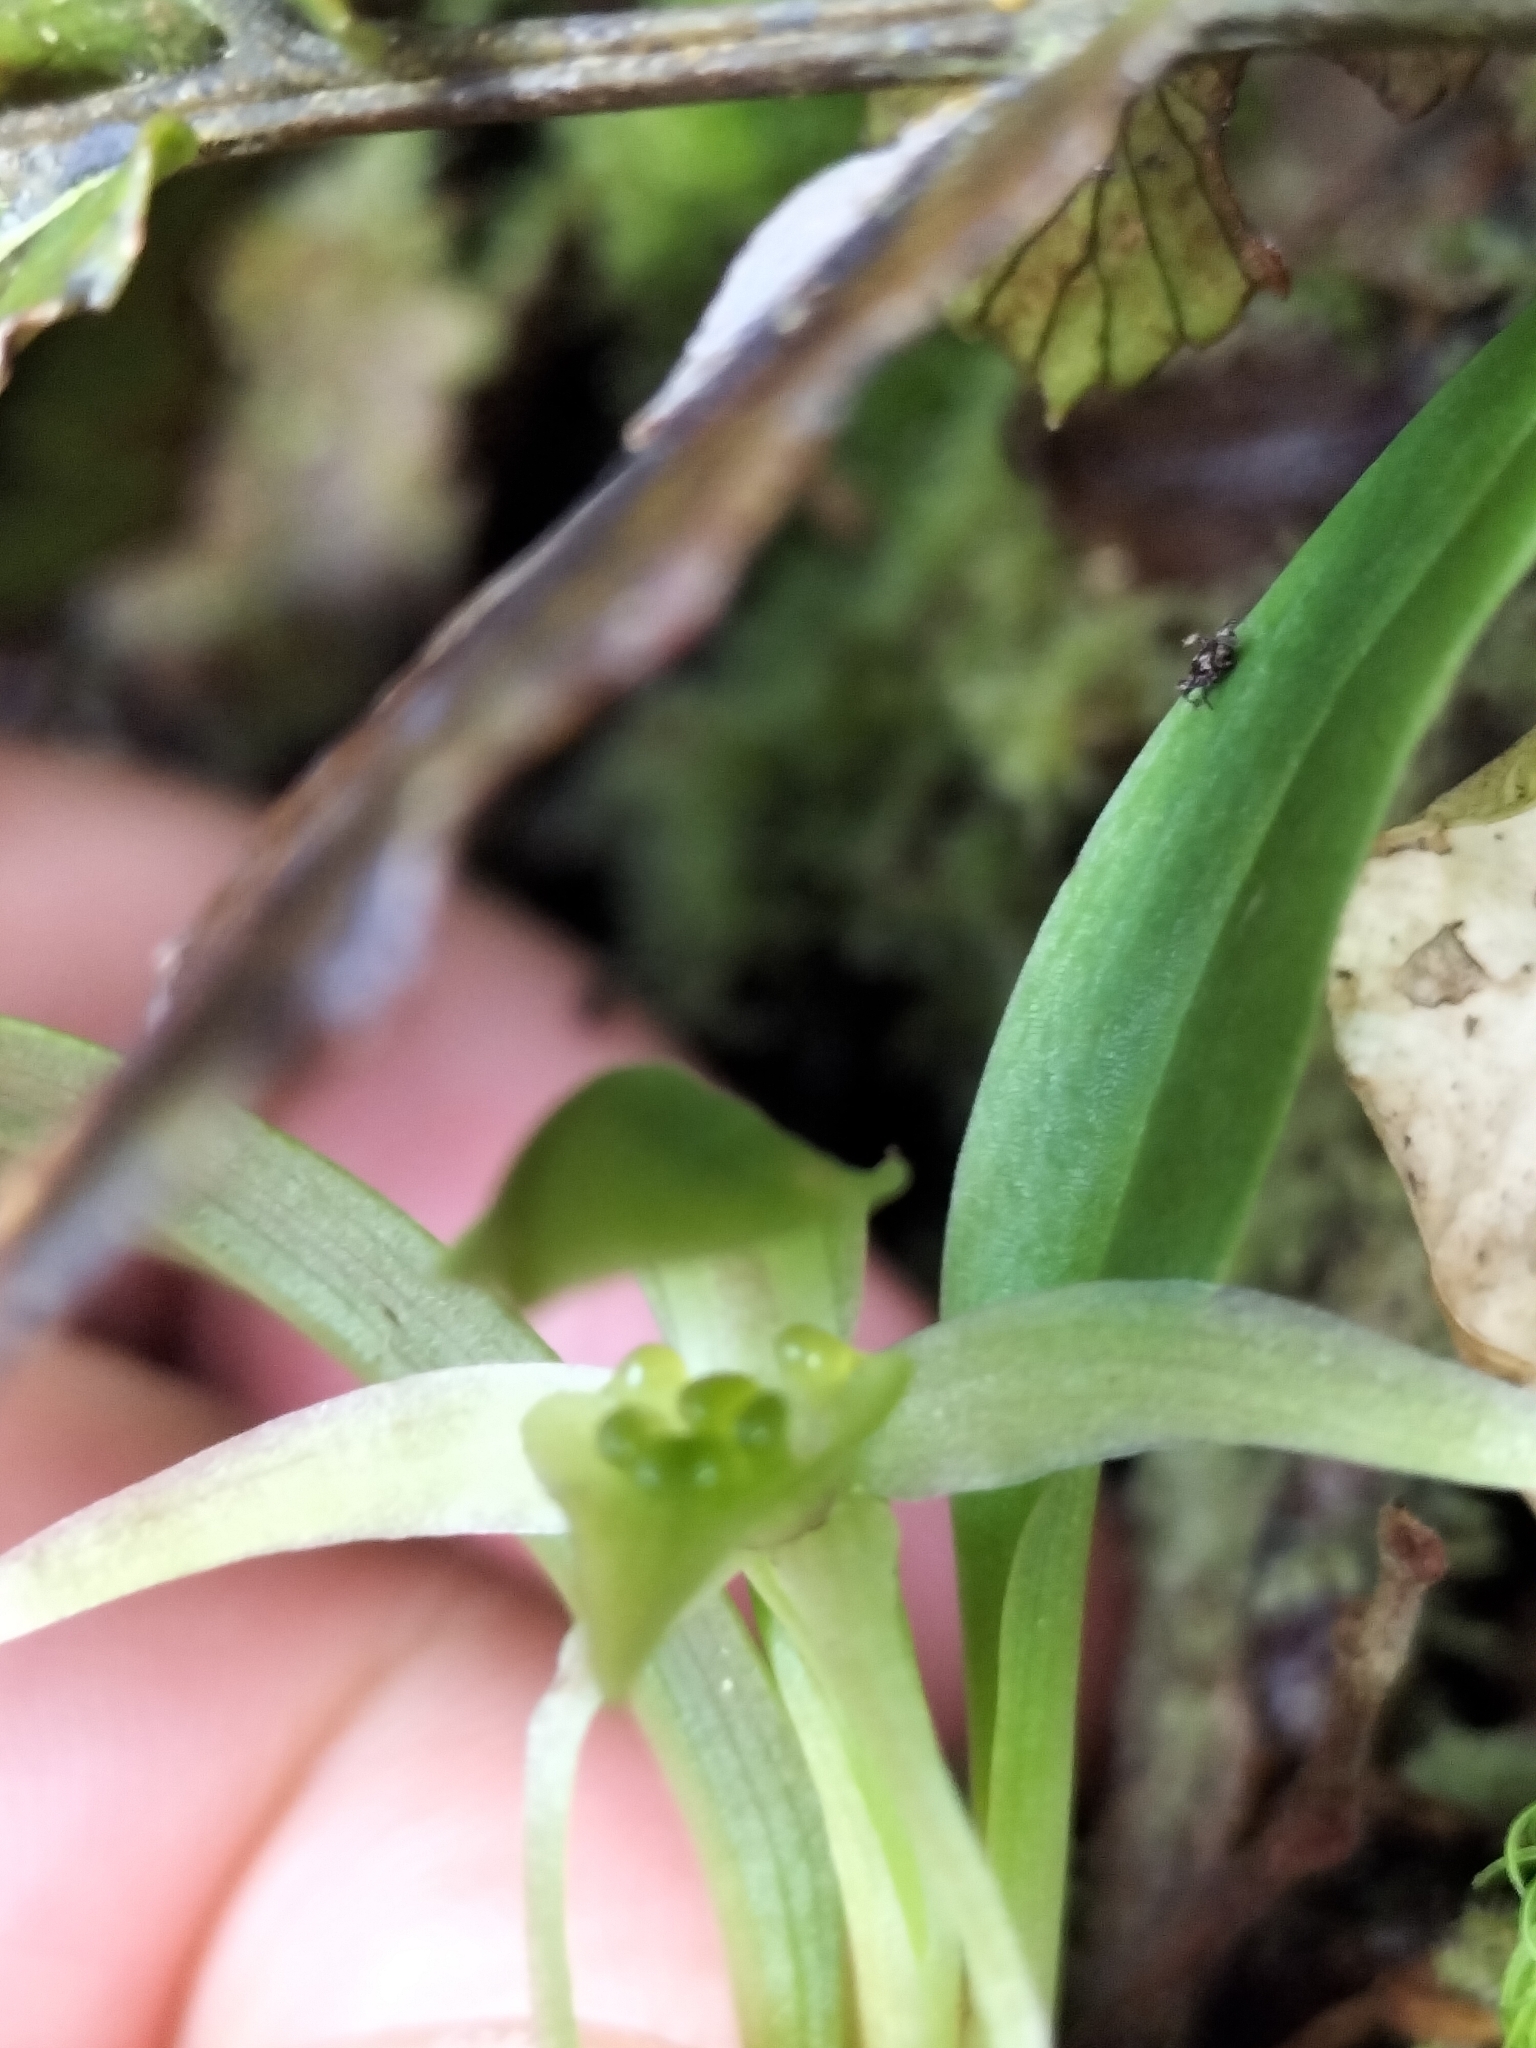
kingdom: Plantae
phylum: Tracheophyta
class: Liliopsida
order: Asparagales
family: Orchidaceae
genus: Chiloglottis
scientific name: Chiloglottis cornuta
